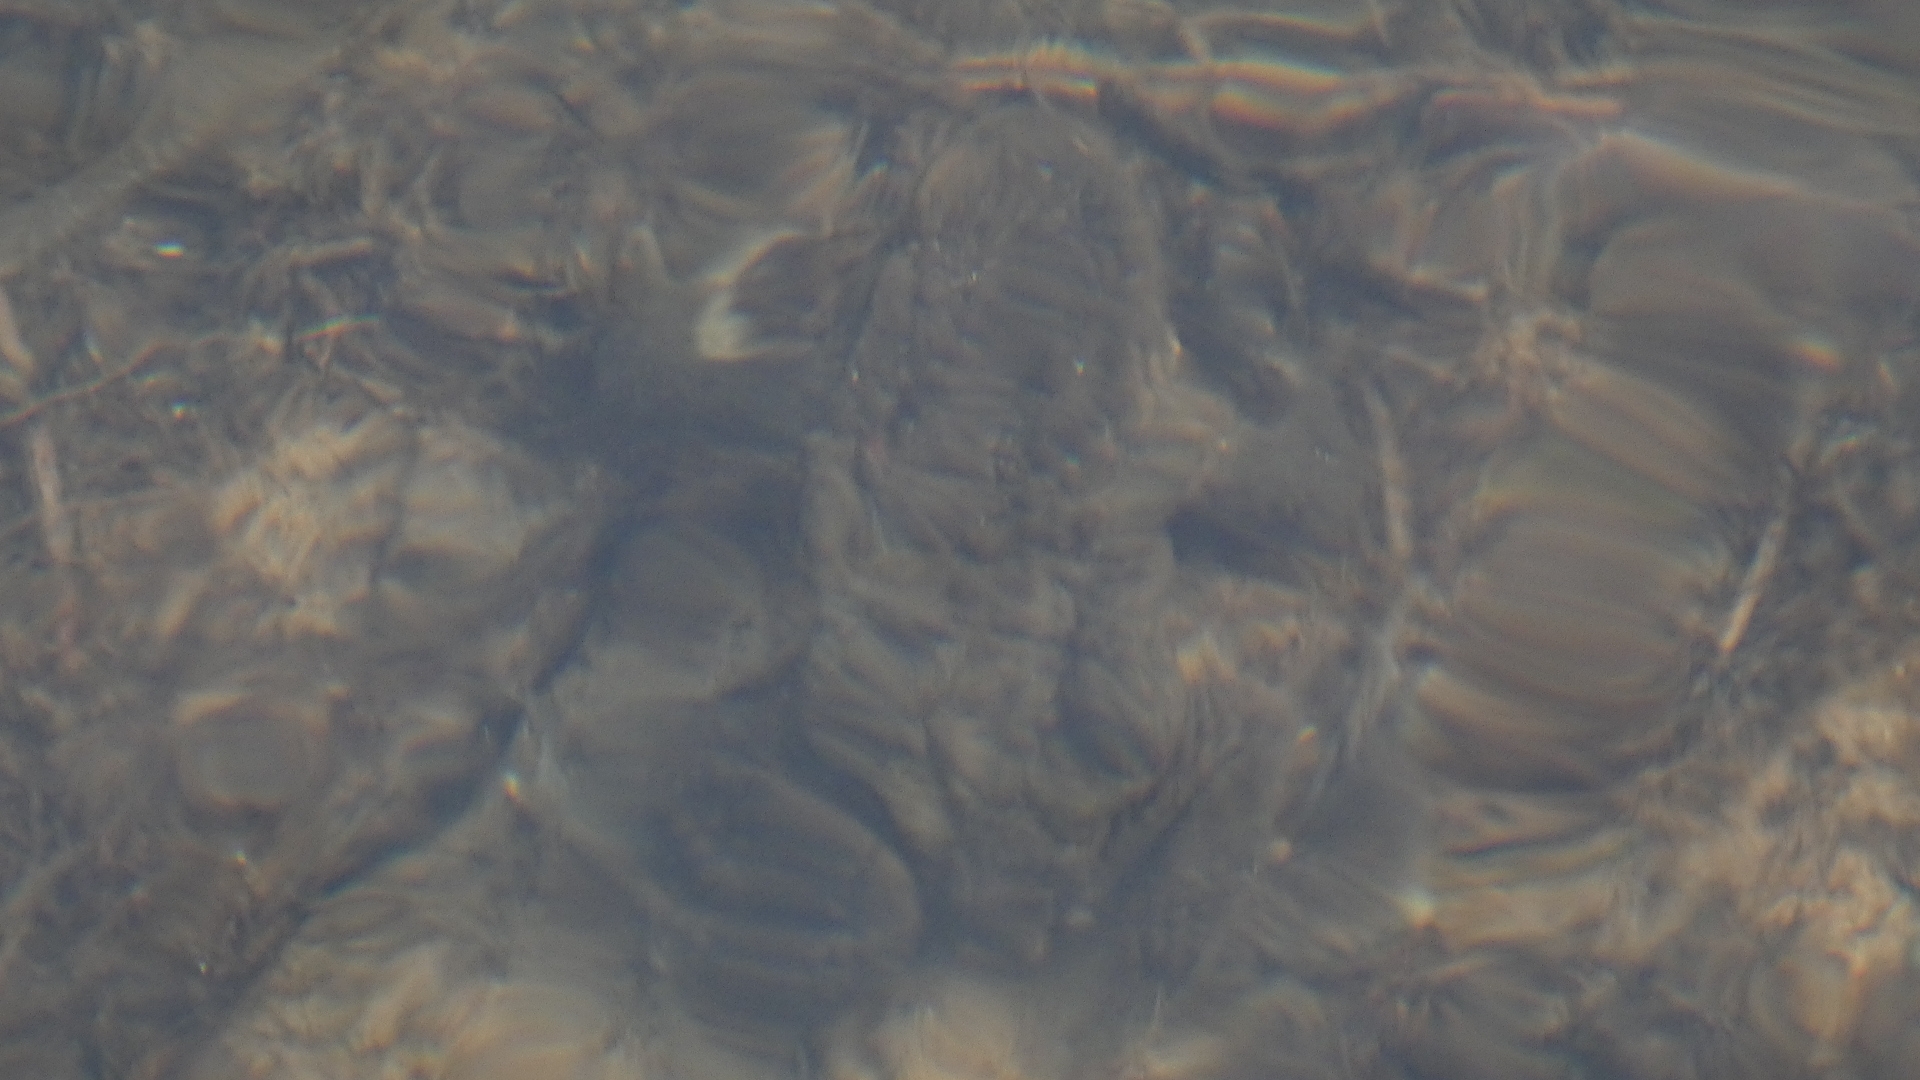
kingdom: Animalia
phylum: Chordata
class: Amphibia
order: Anura
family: Bufonidae
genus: Bufo
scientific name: Bufo bufo
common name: Common toad
